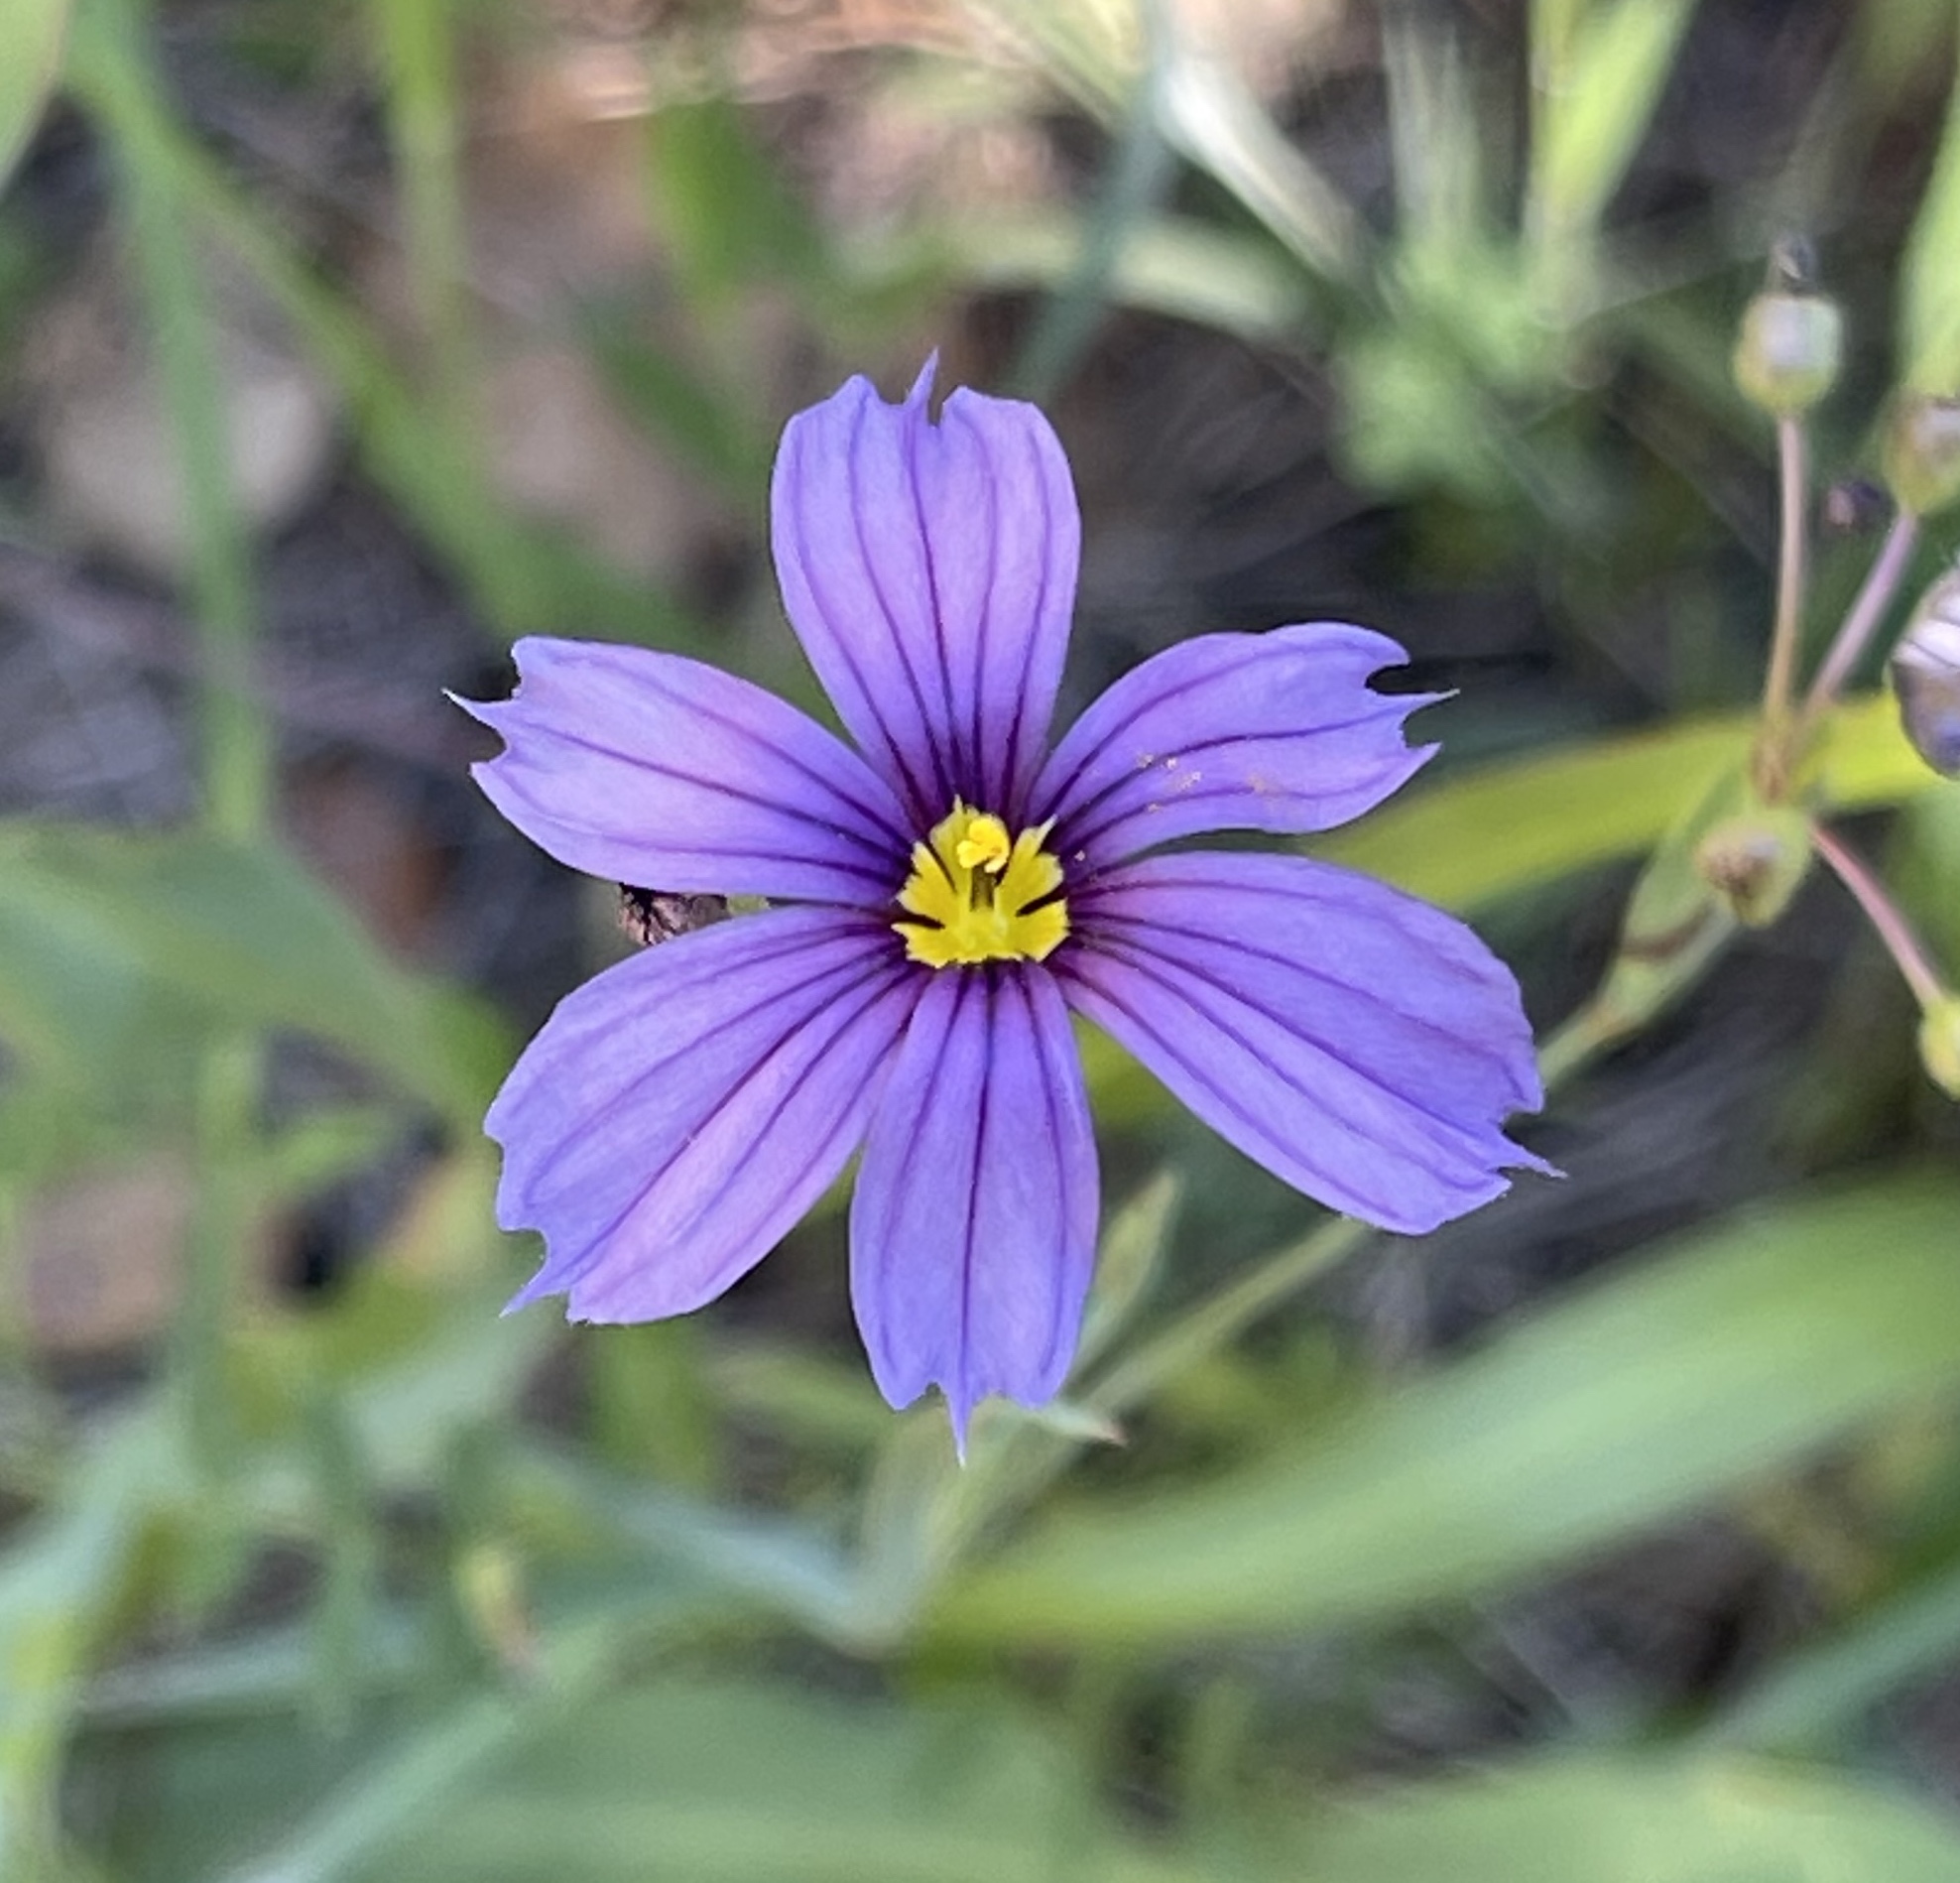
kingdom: Plantae
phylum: Tracheophyta
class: Liliopsida
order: Asparagales
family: Iridaceae
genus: Sisyrinchium
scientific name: Sisyrinchium bellum
